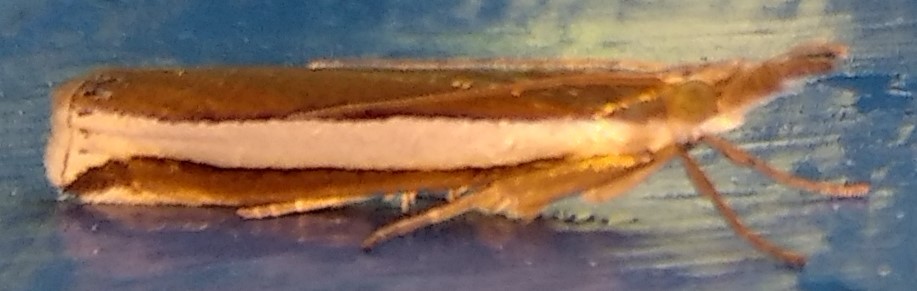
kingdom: Animalia
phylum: Arthropoda
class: Insecta
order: Lepidoptera
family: Crambidae
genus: Crambus
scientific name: Crambus unistriatellus
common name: Wide-stripe grass-veneer moth
